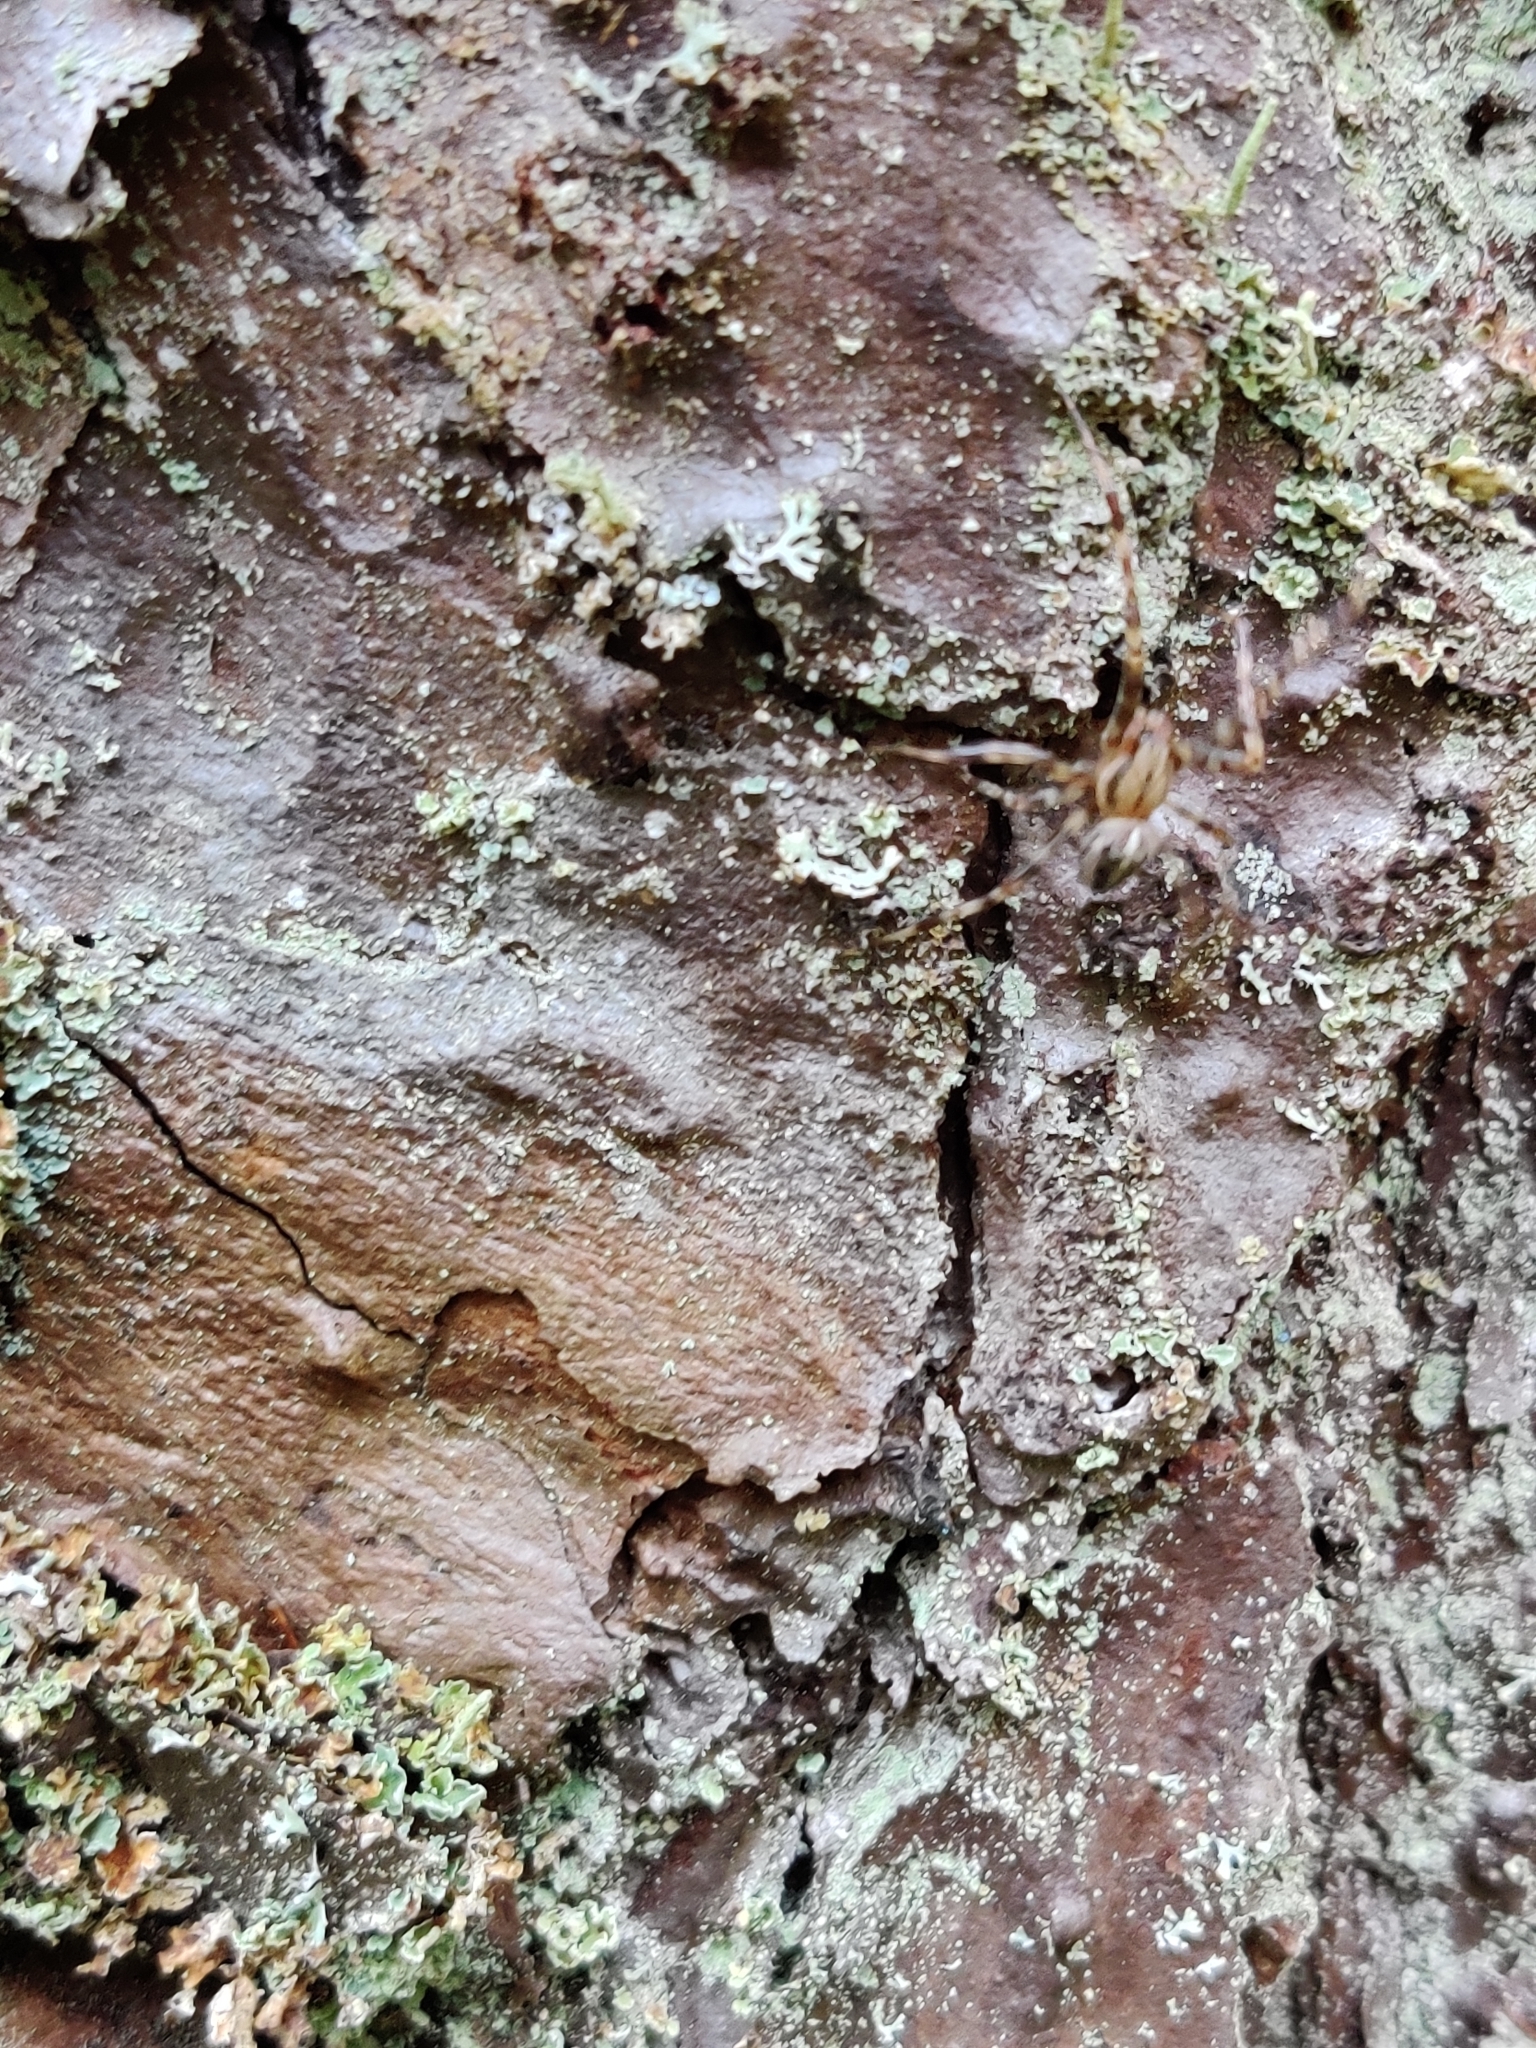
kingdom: Animalia
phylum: Arthropoda
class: Arachnida
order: Araneae
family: Araneidae
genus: Araneus
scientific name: Araneus diadematus
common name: Cross orbweaver
